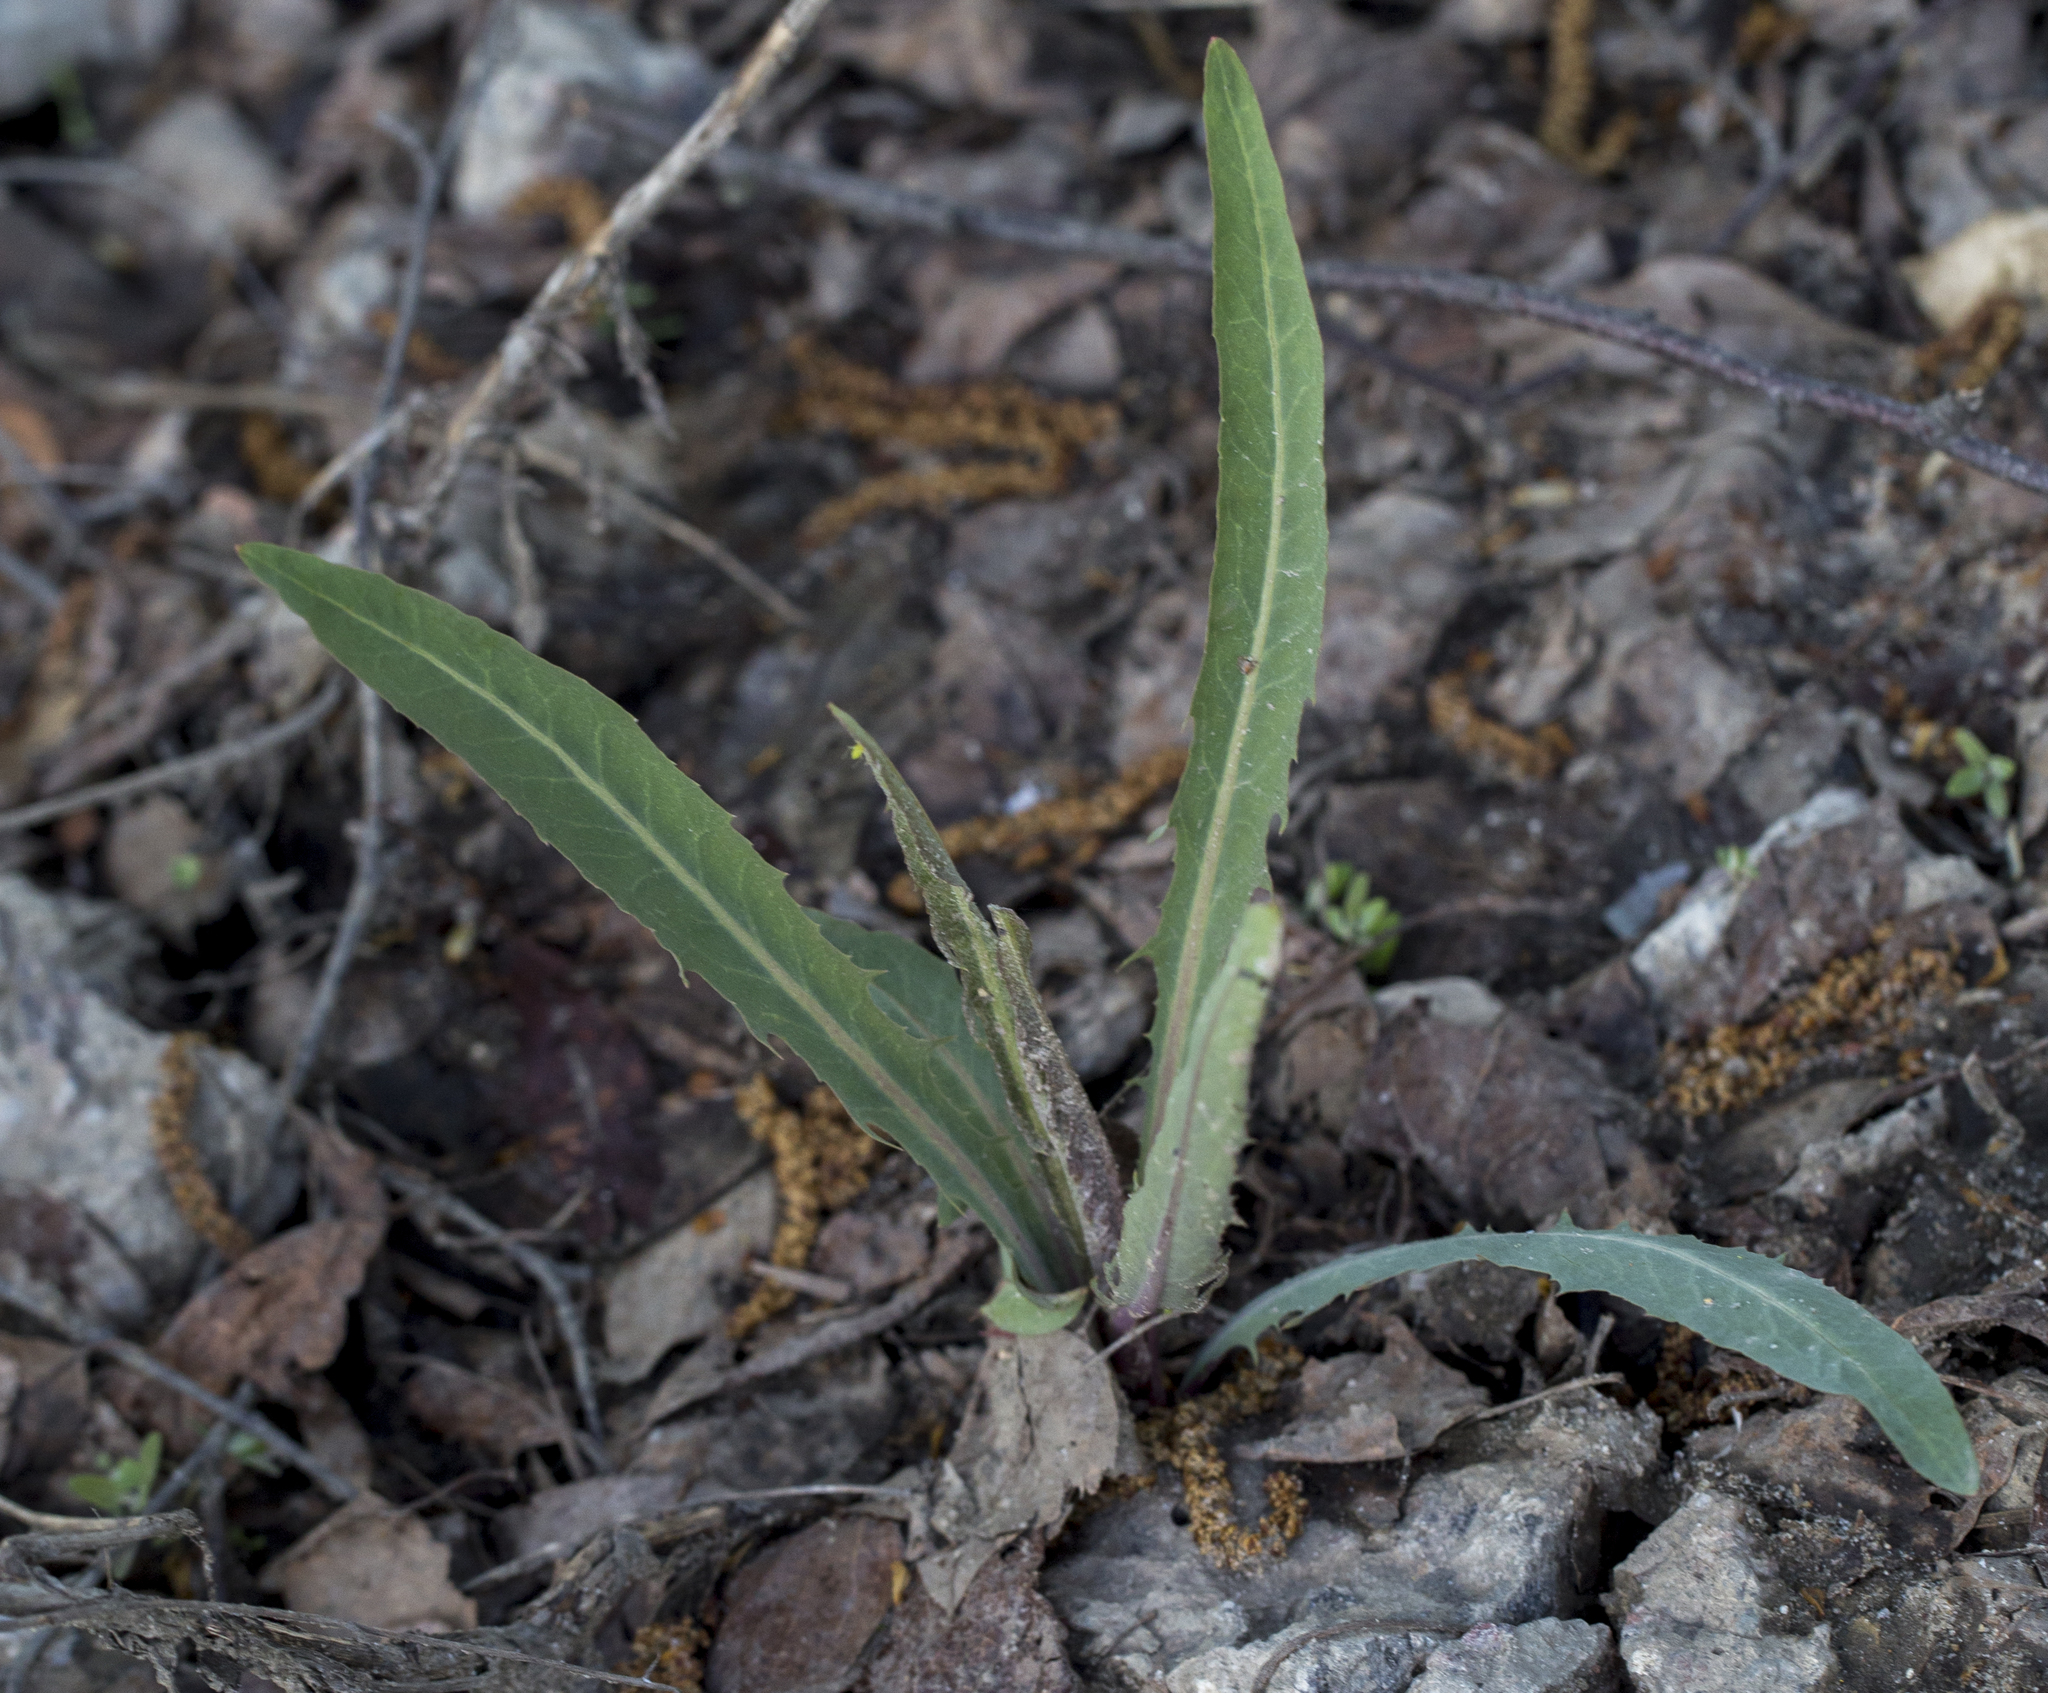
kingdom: Plantae
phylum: Tracheophyta
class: Magnoliopsida
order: Asterales
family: Asteraceae
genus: Lactuca
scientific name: Lactuca tatarica
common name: Blue lettuce
